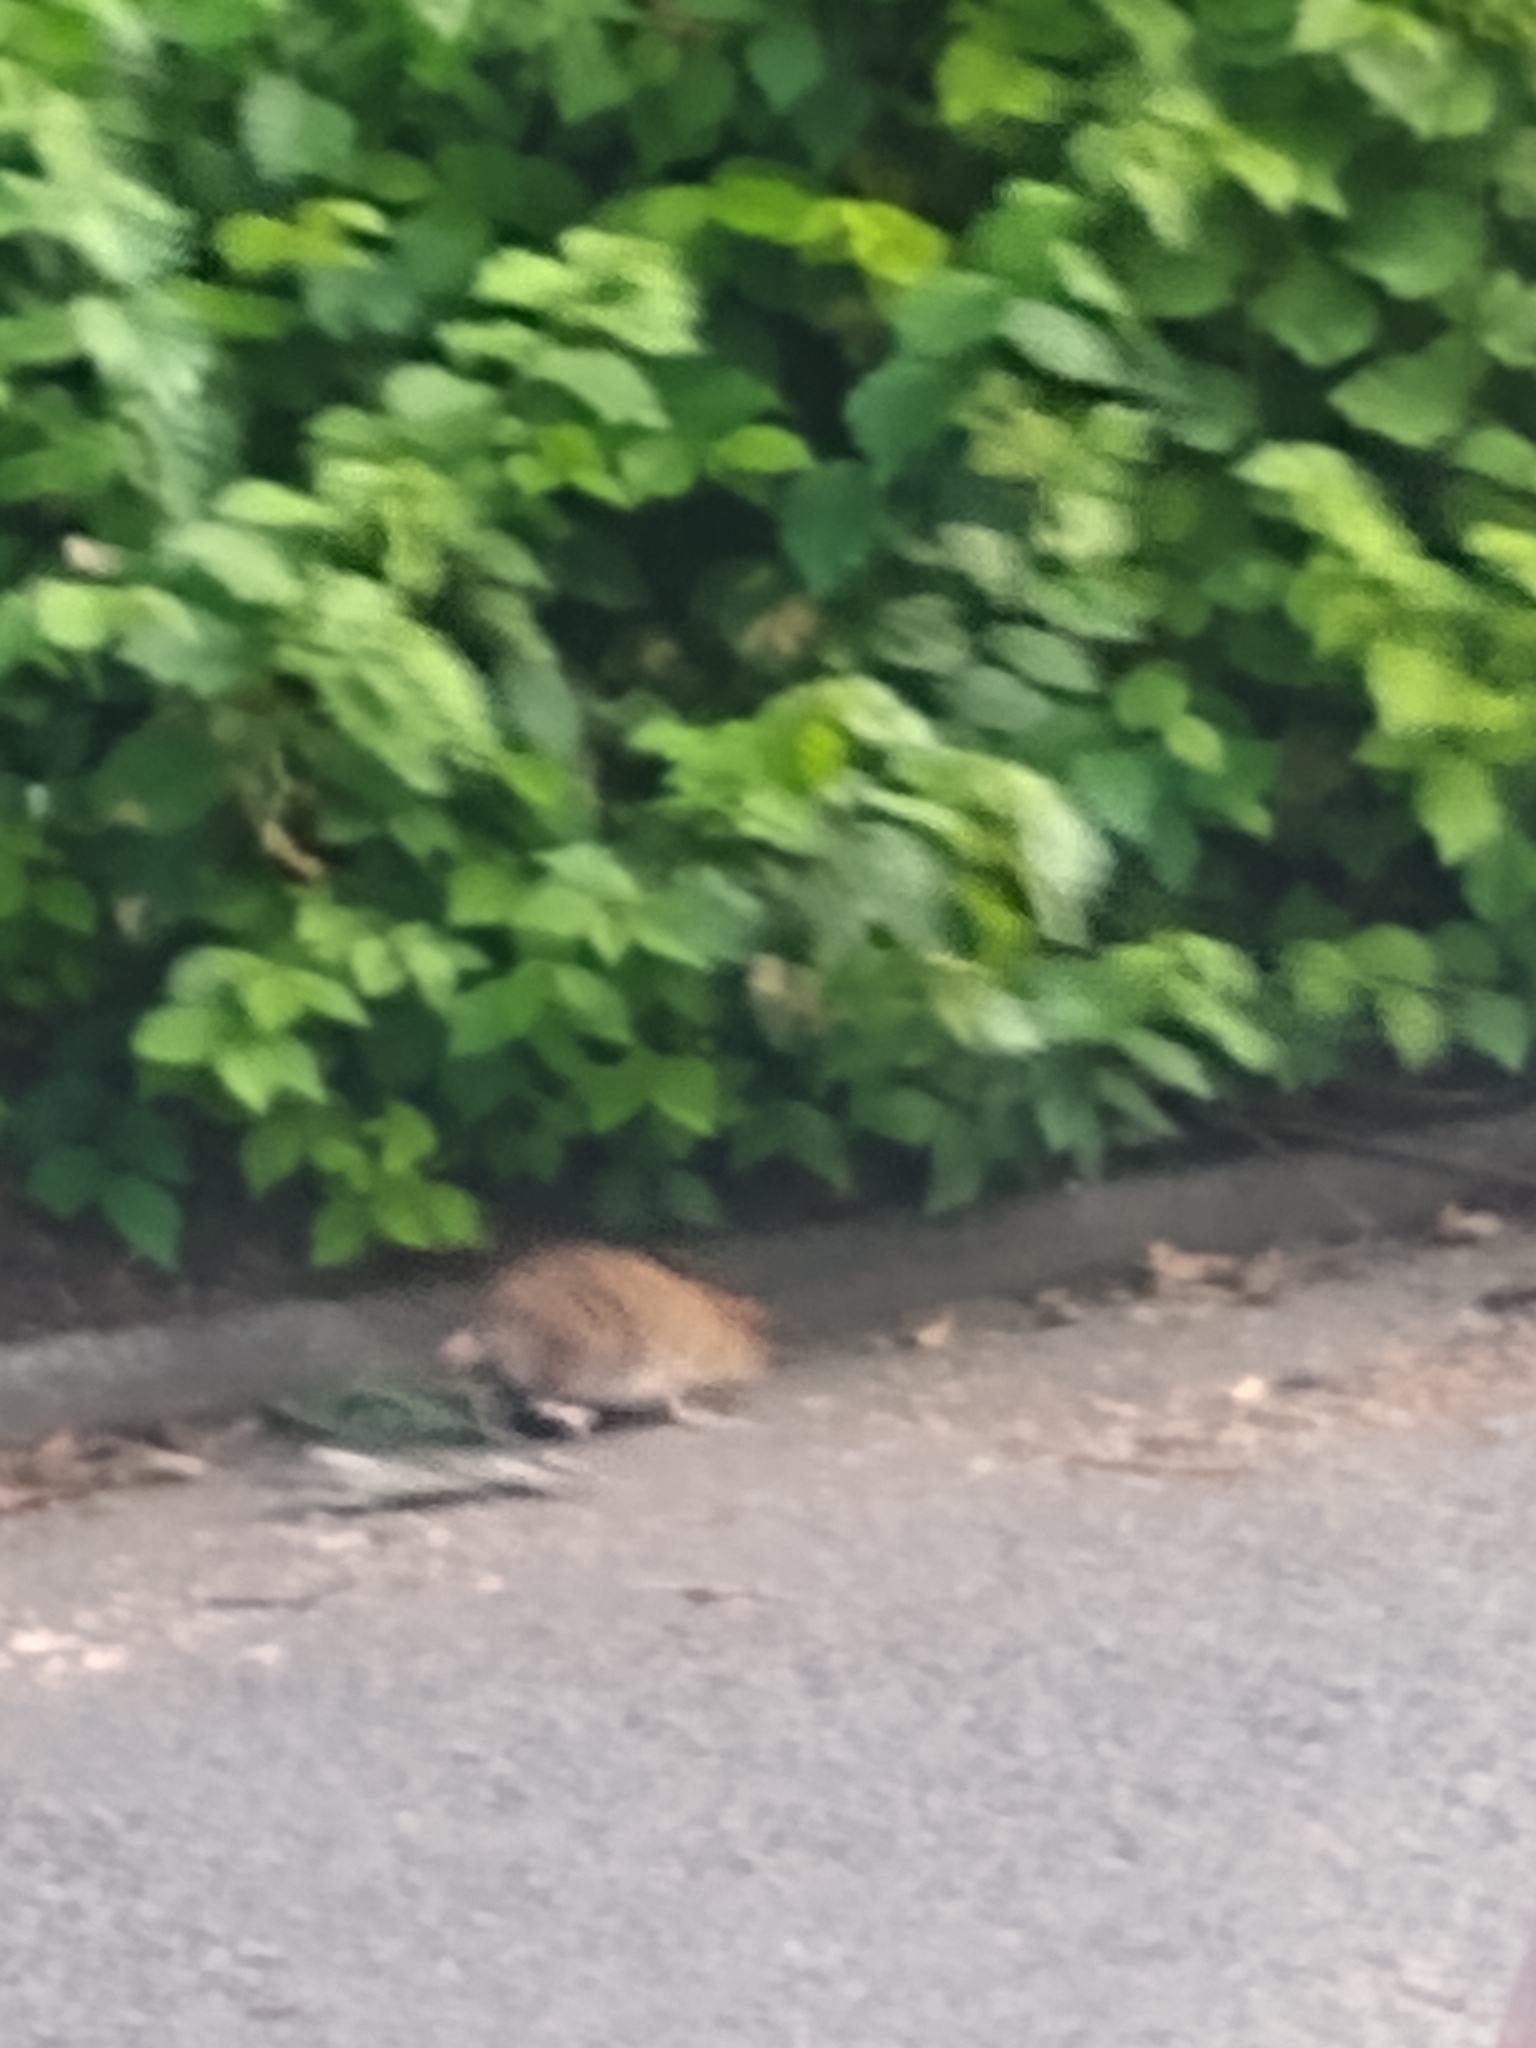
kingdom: Animalia
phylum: Chordata
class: Mammalia
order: Rodentia
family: Muridae
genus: Rattus
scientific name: Rattus norvegicus
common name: Brown rat
